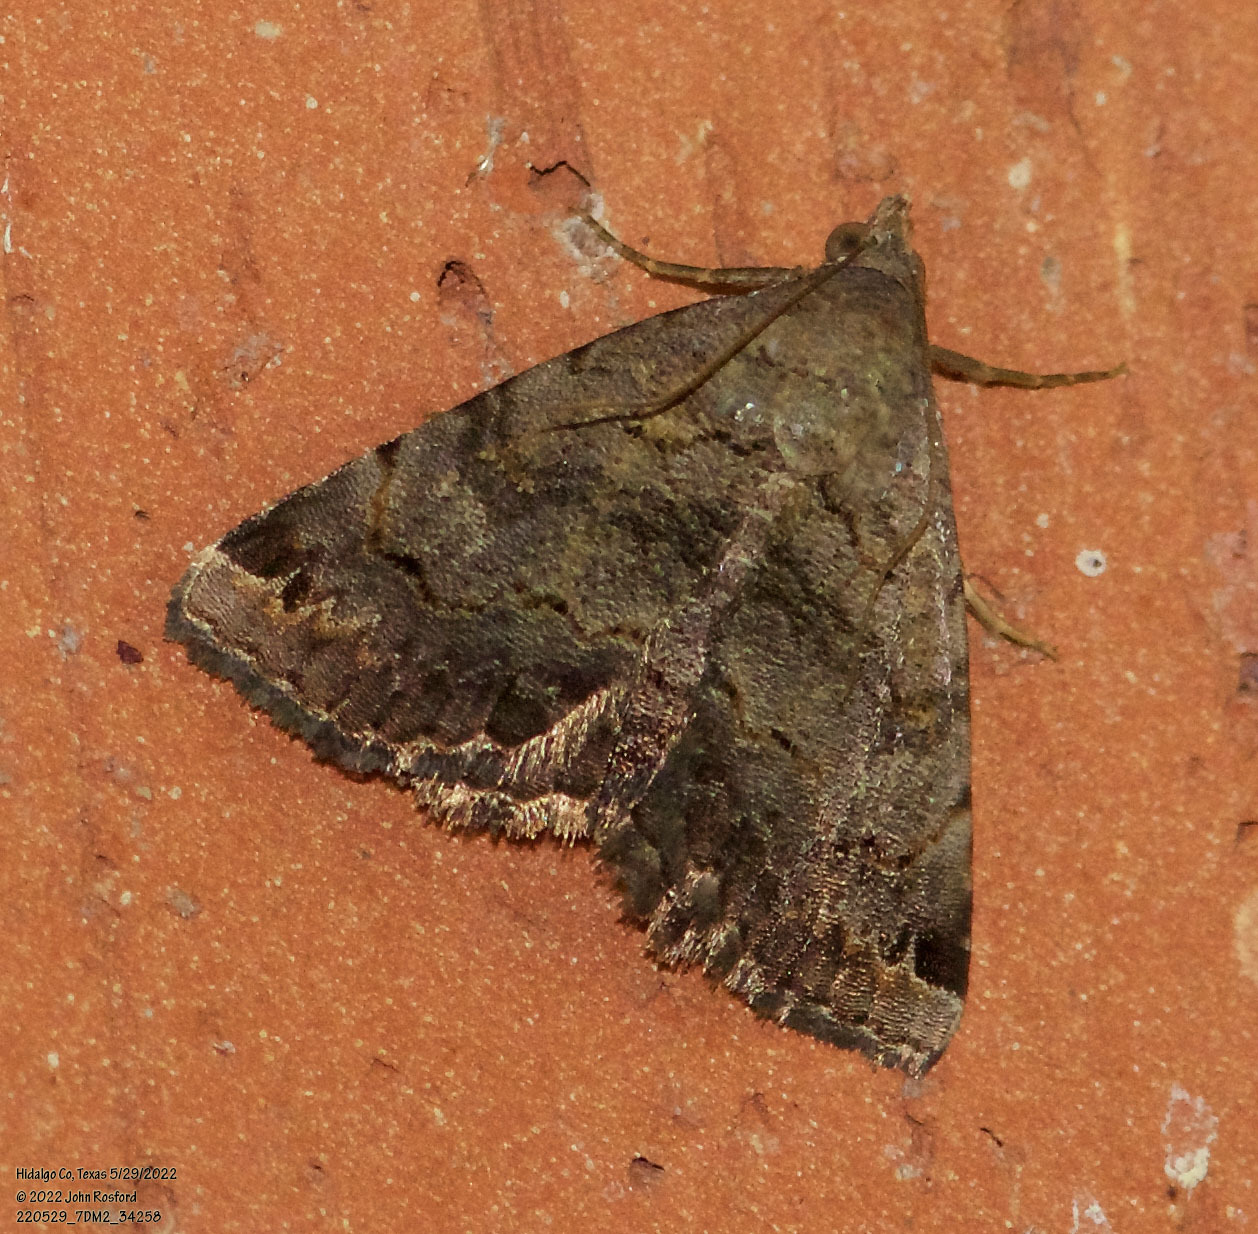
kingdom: Animalia
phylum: Arthropoda
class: Insecta
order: Lepidoptera
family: Erebidae
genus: Toxonprucha
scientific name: Toxonprucha crudelis
